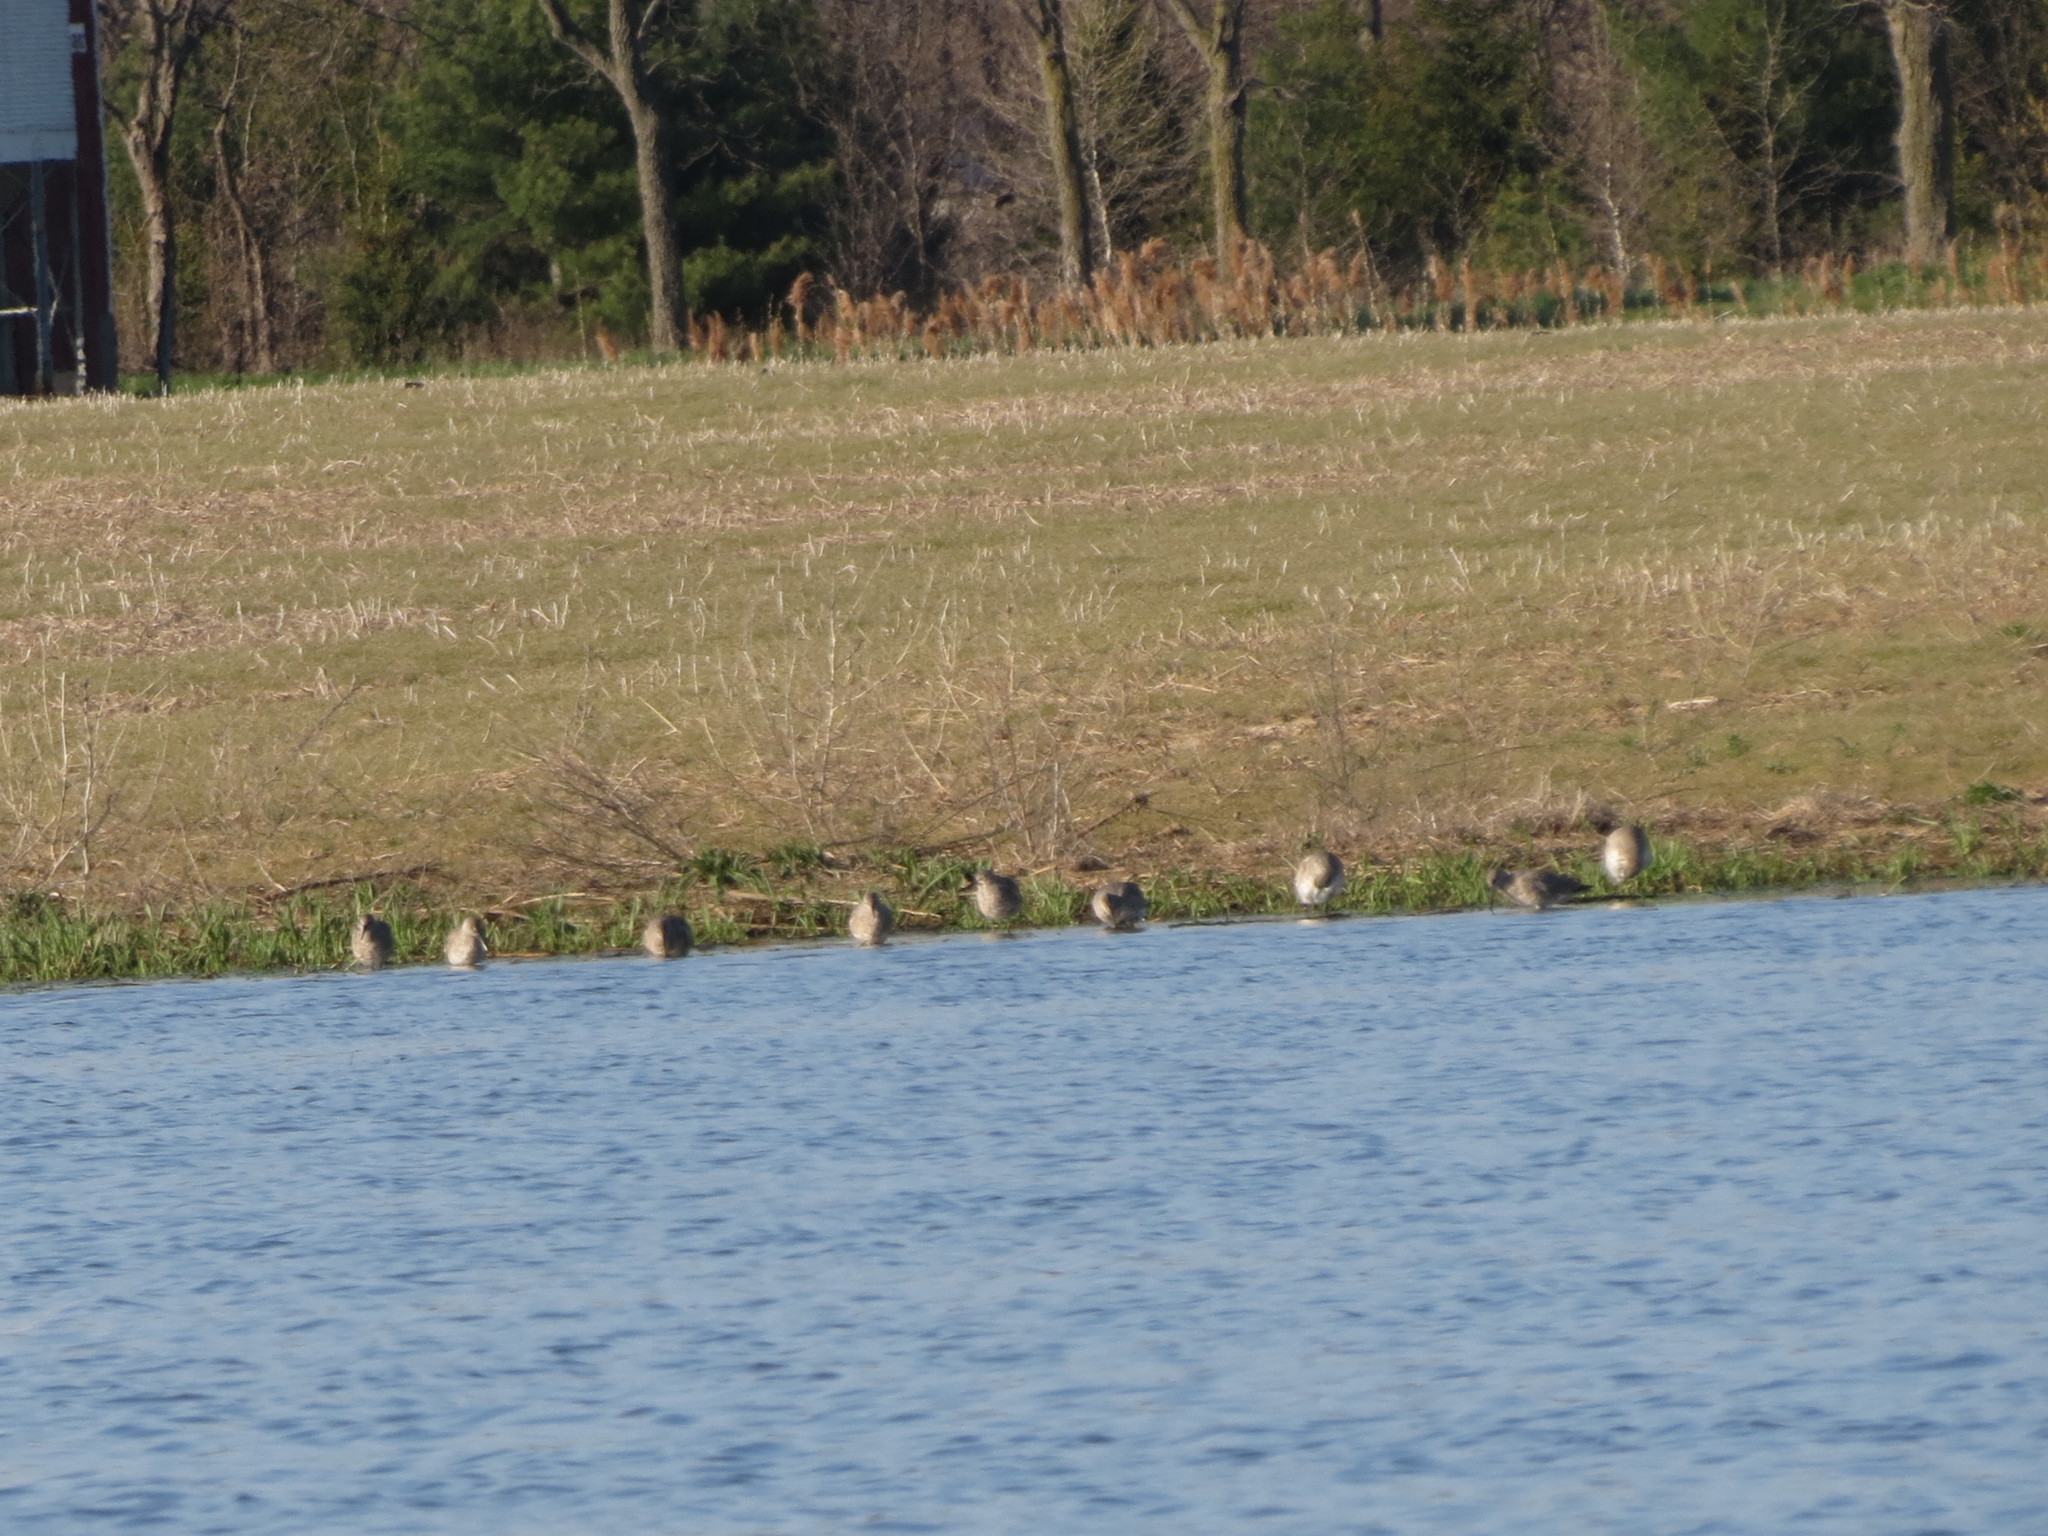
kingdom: Animalia
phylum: Chordata
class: Aves
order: Charadriiformes
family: Scolopacidae
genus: Tringa
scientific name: Tringa semipalmata
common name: Willet
